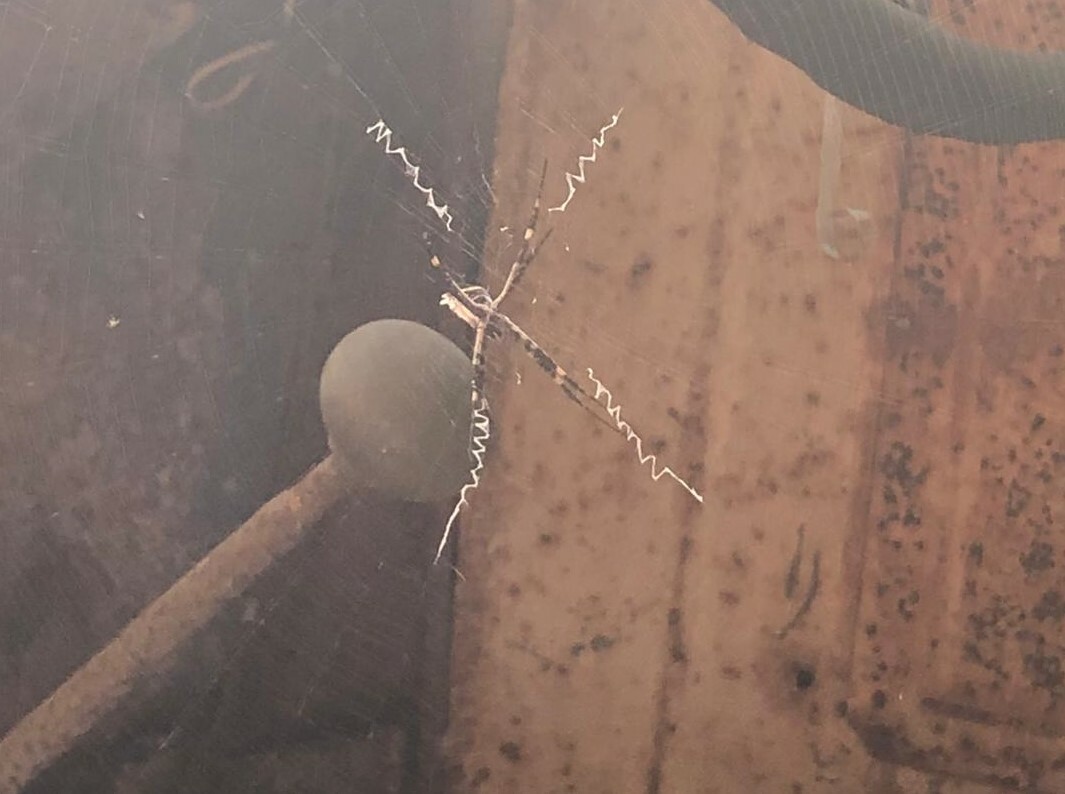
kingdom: Animalia
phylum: Arthropoda
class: Arachnida
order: Araneae
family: Araneidae
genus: Argiope
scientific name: Argiope argentata
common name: Orb weavers
